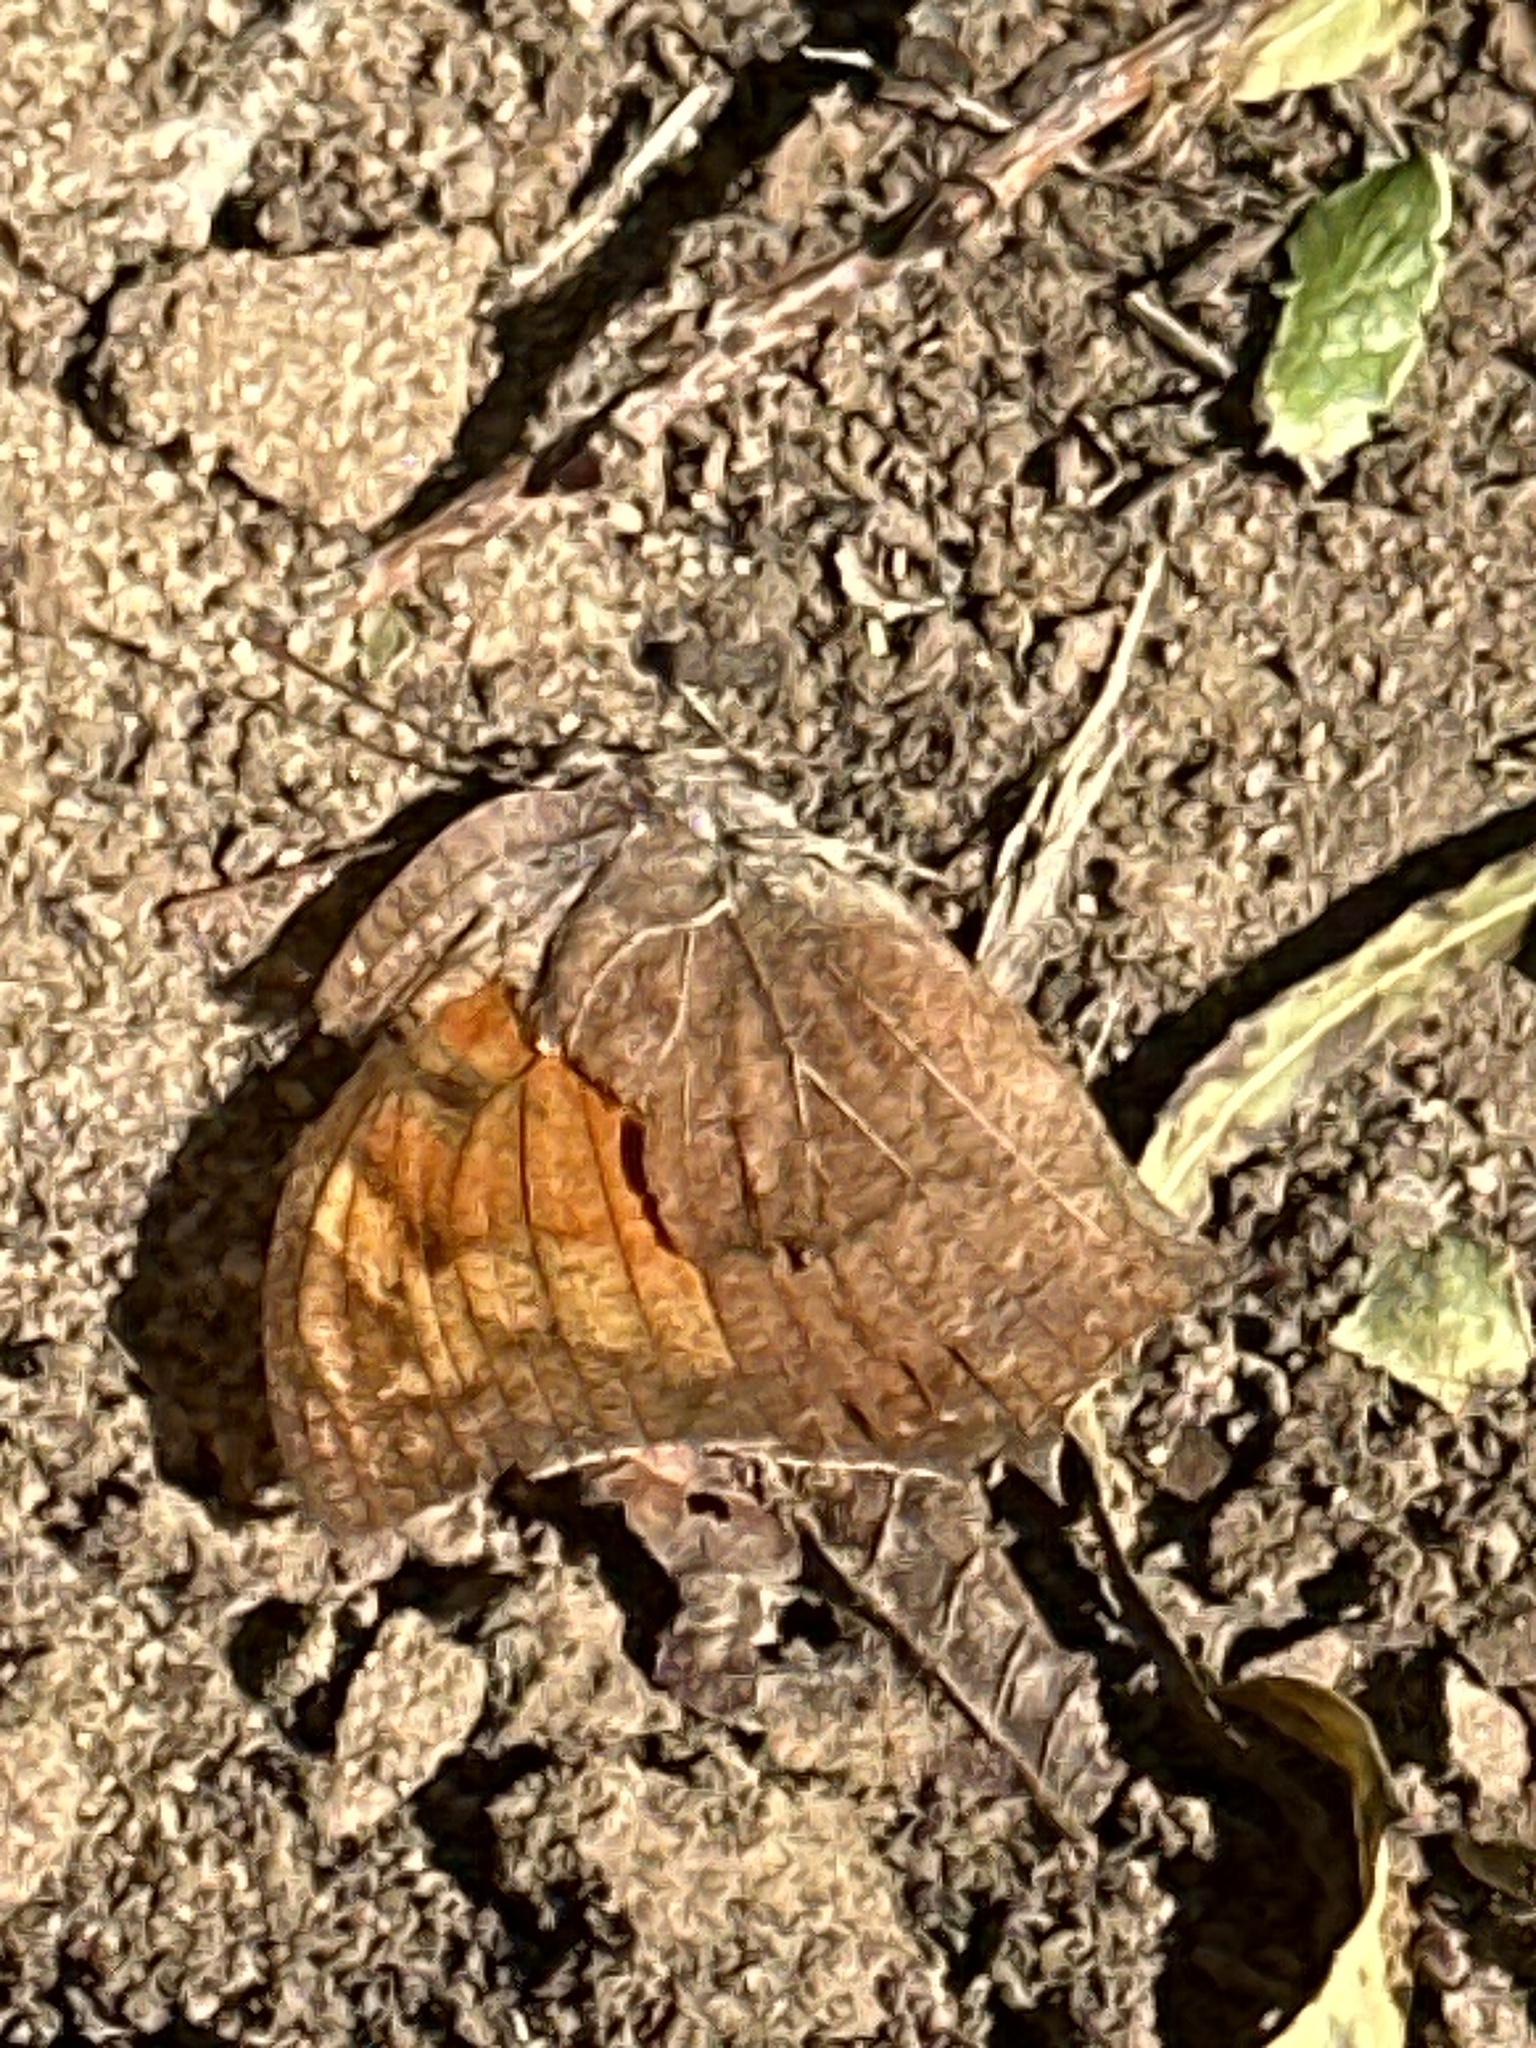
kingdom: Animalia
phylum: Arthropoda
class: Insecta
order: Lepidoptera
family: Nymphalidae
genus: Anaea
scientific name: Anaea andria
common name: Goatweed leafwing
